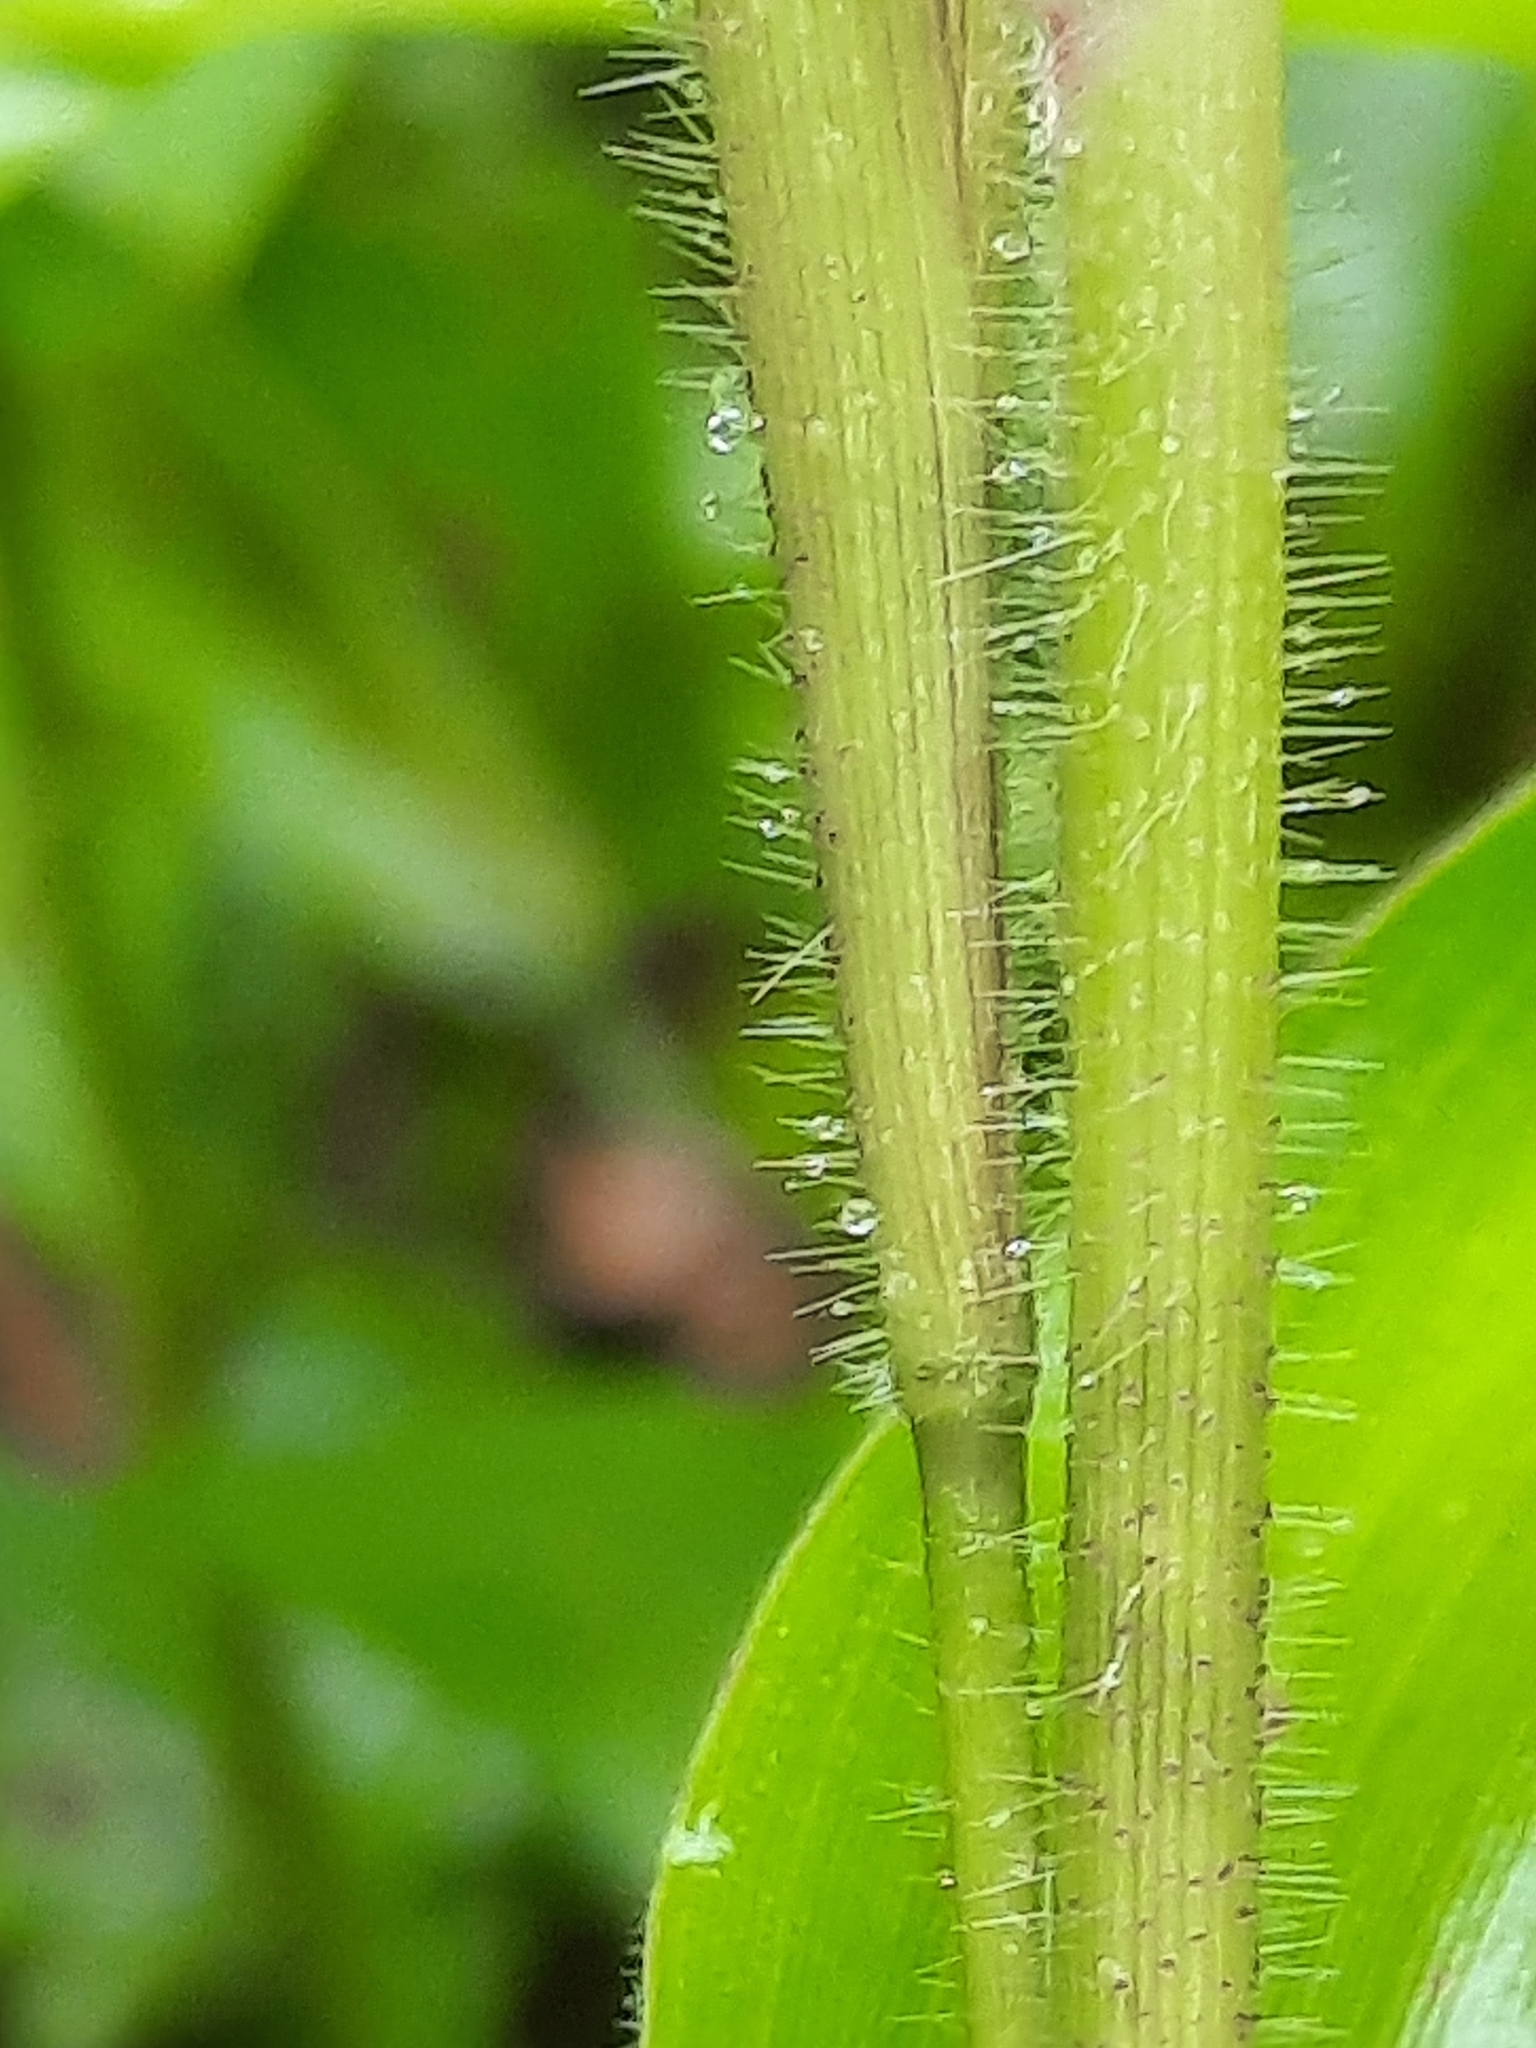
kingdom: Plantae
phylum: Tracheophyta
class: Liliopsida
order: Poales
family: Poaceae
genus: Dichanthelium
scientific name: Dichanthelium clandestinum
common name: Deer-tongue grass
